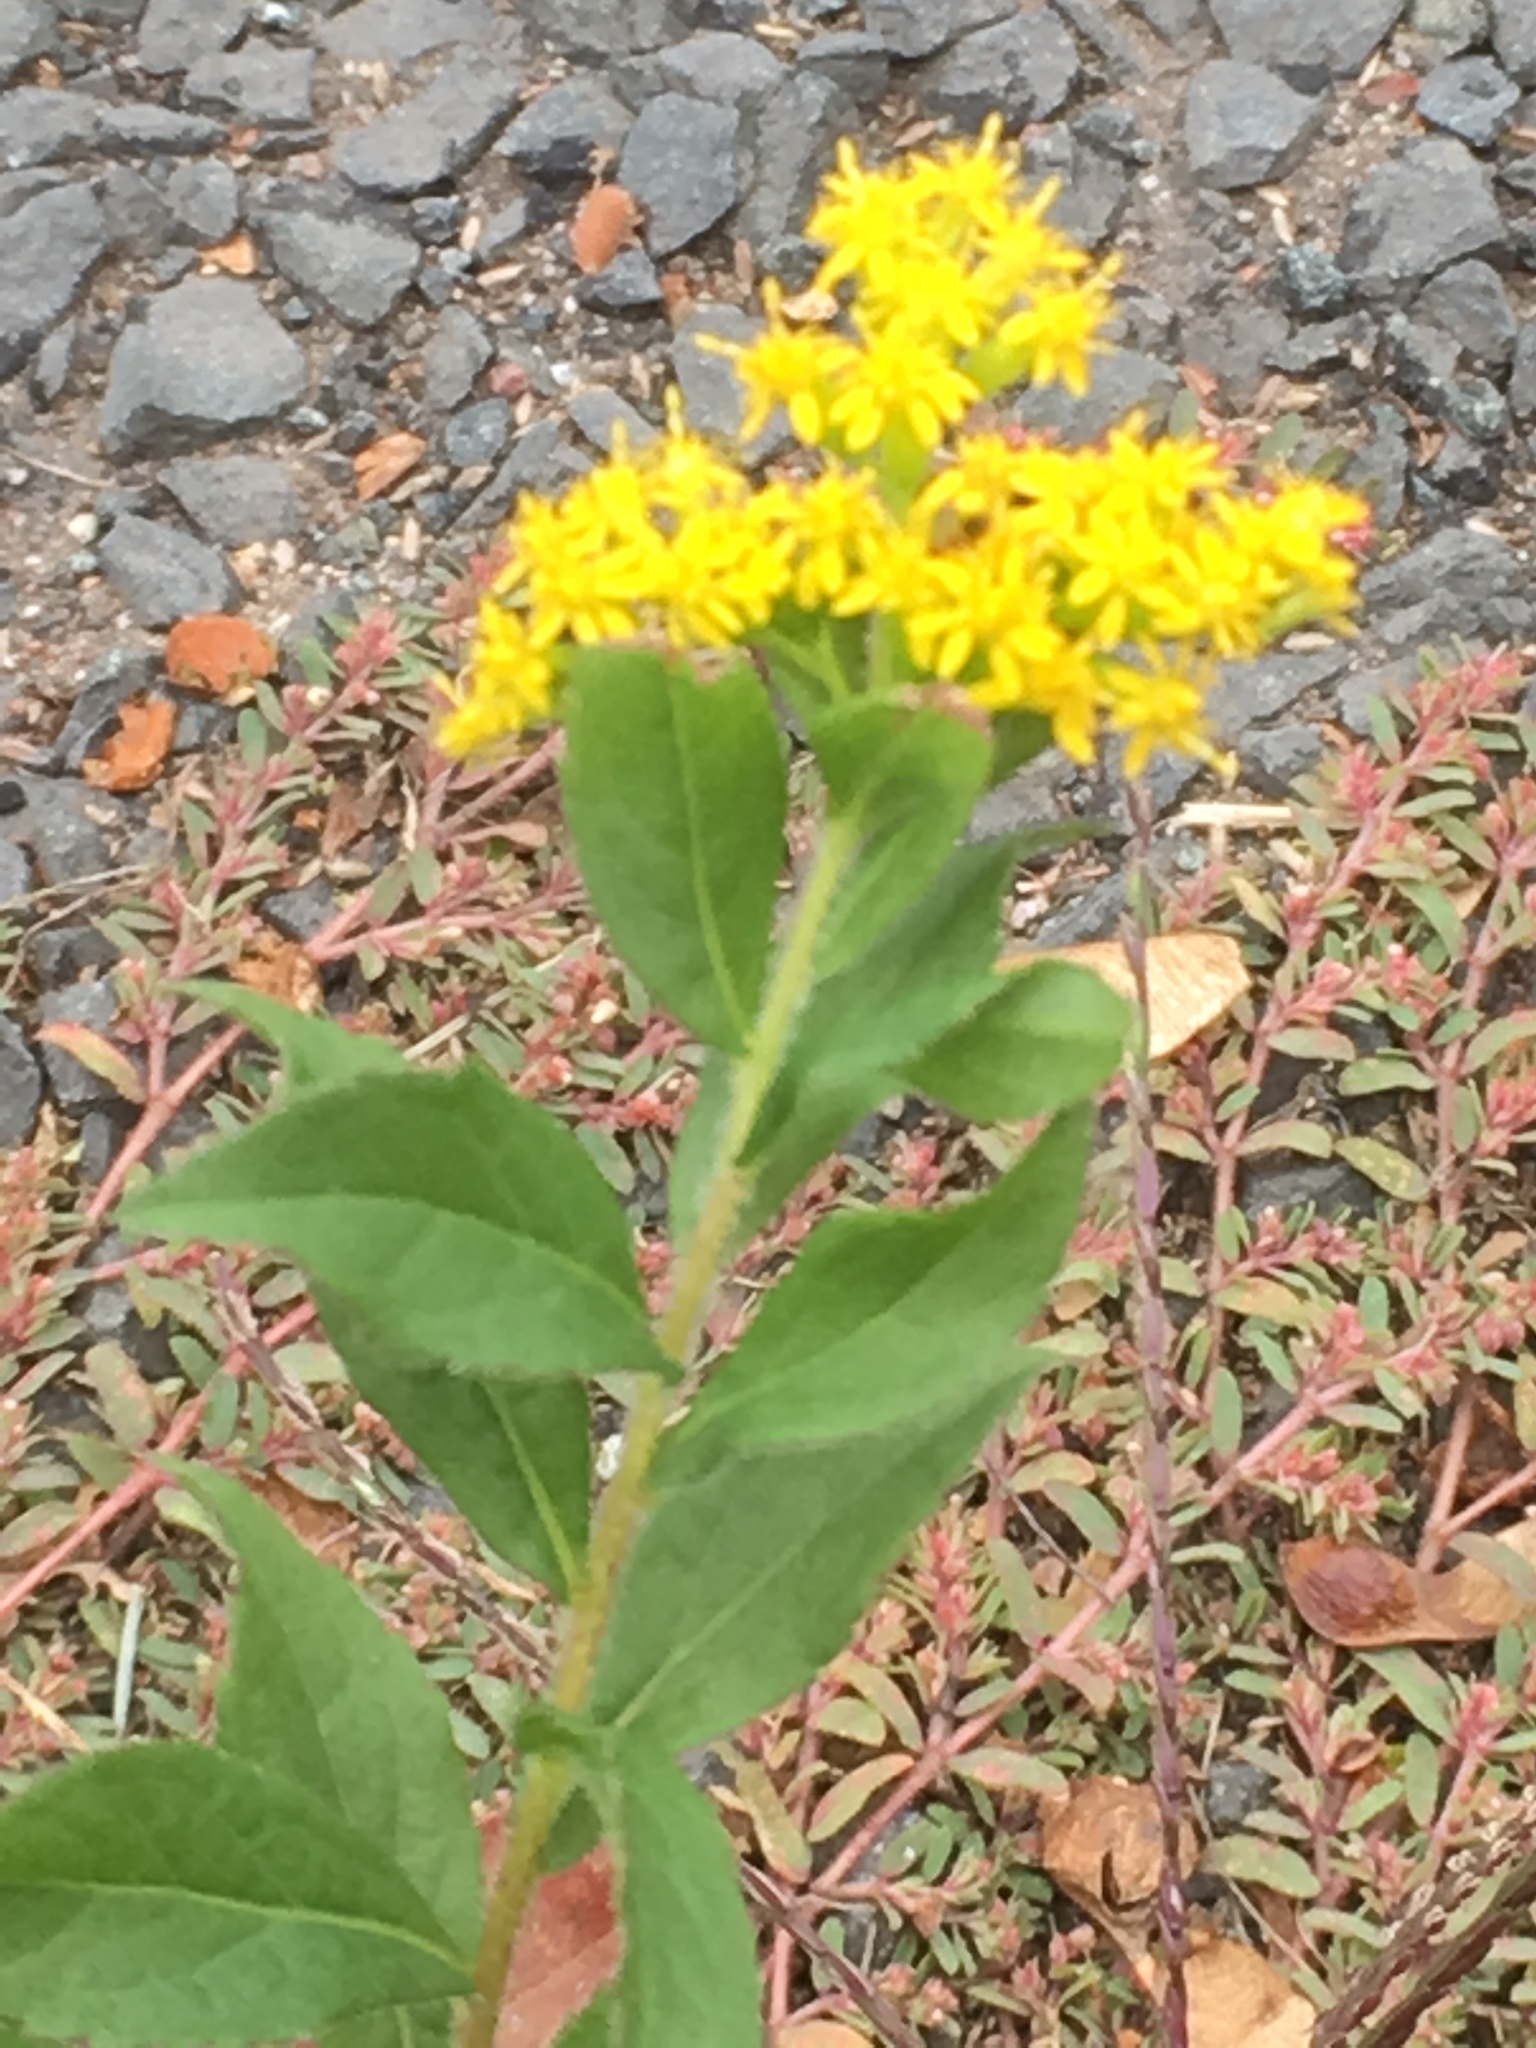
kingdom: Plantae
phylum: Tracheophyta
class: Magnoliopsida
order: Asterales
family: Asteraceae
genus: Solidago
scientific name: Solidago rugosa
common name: Rough-stemmed goldenrod
